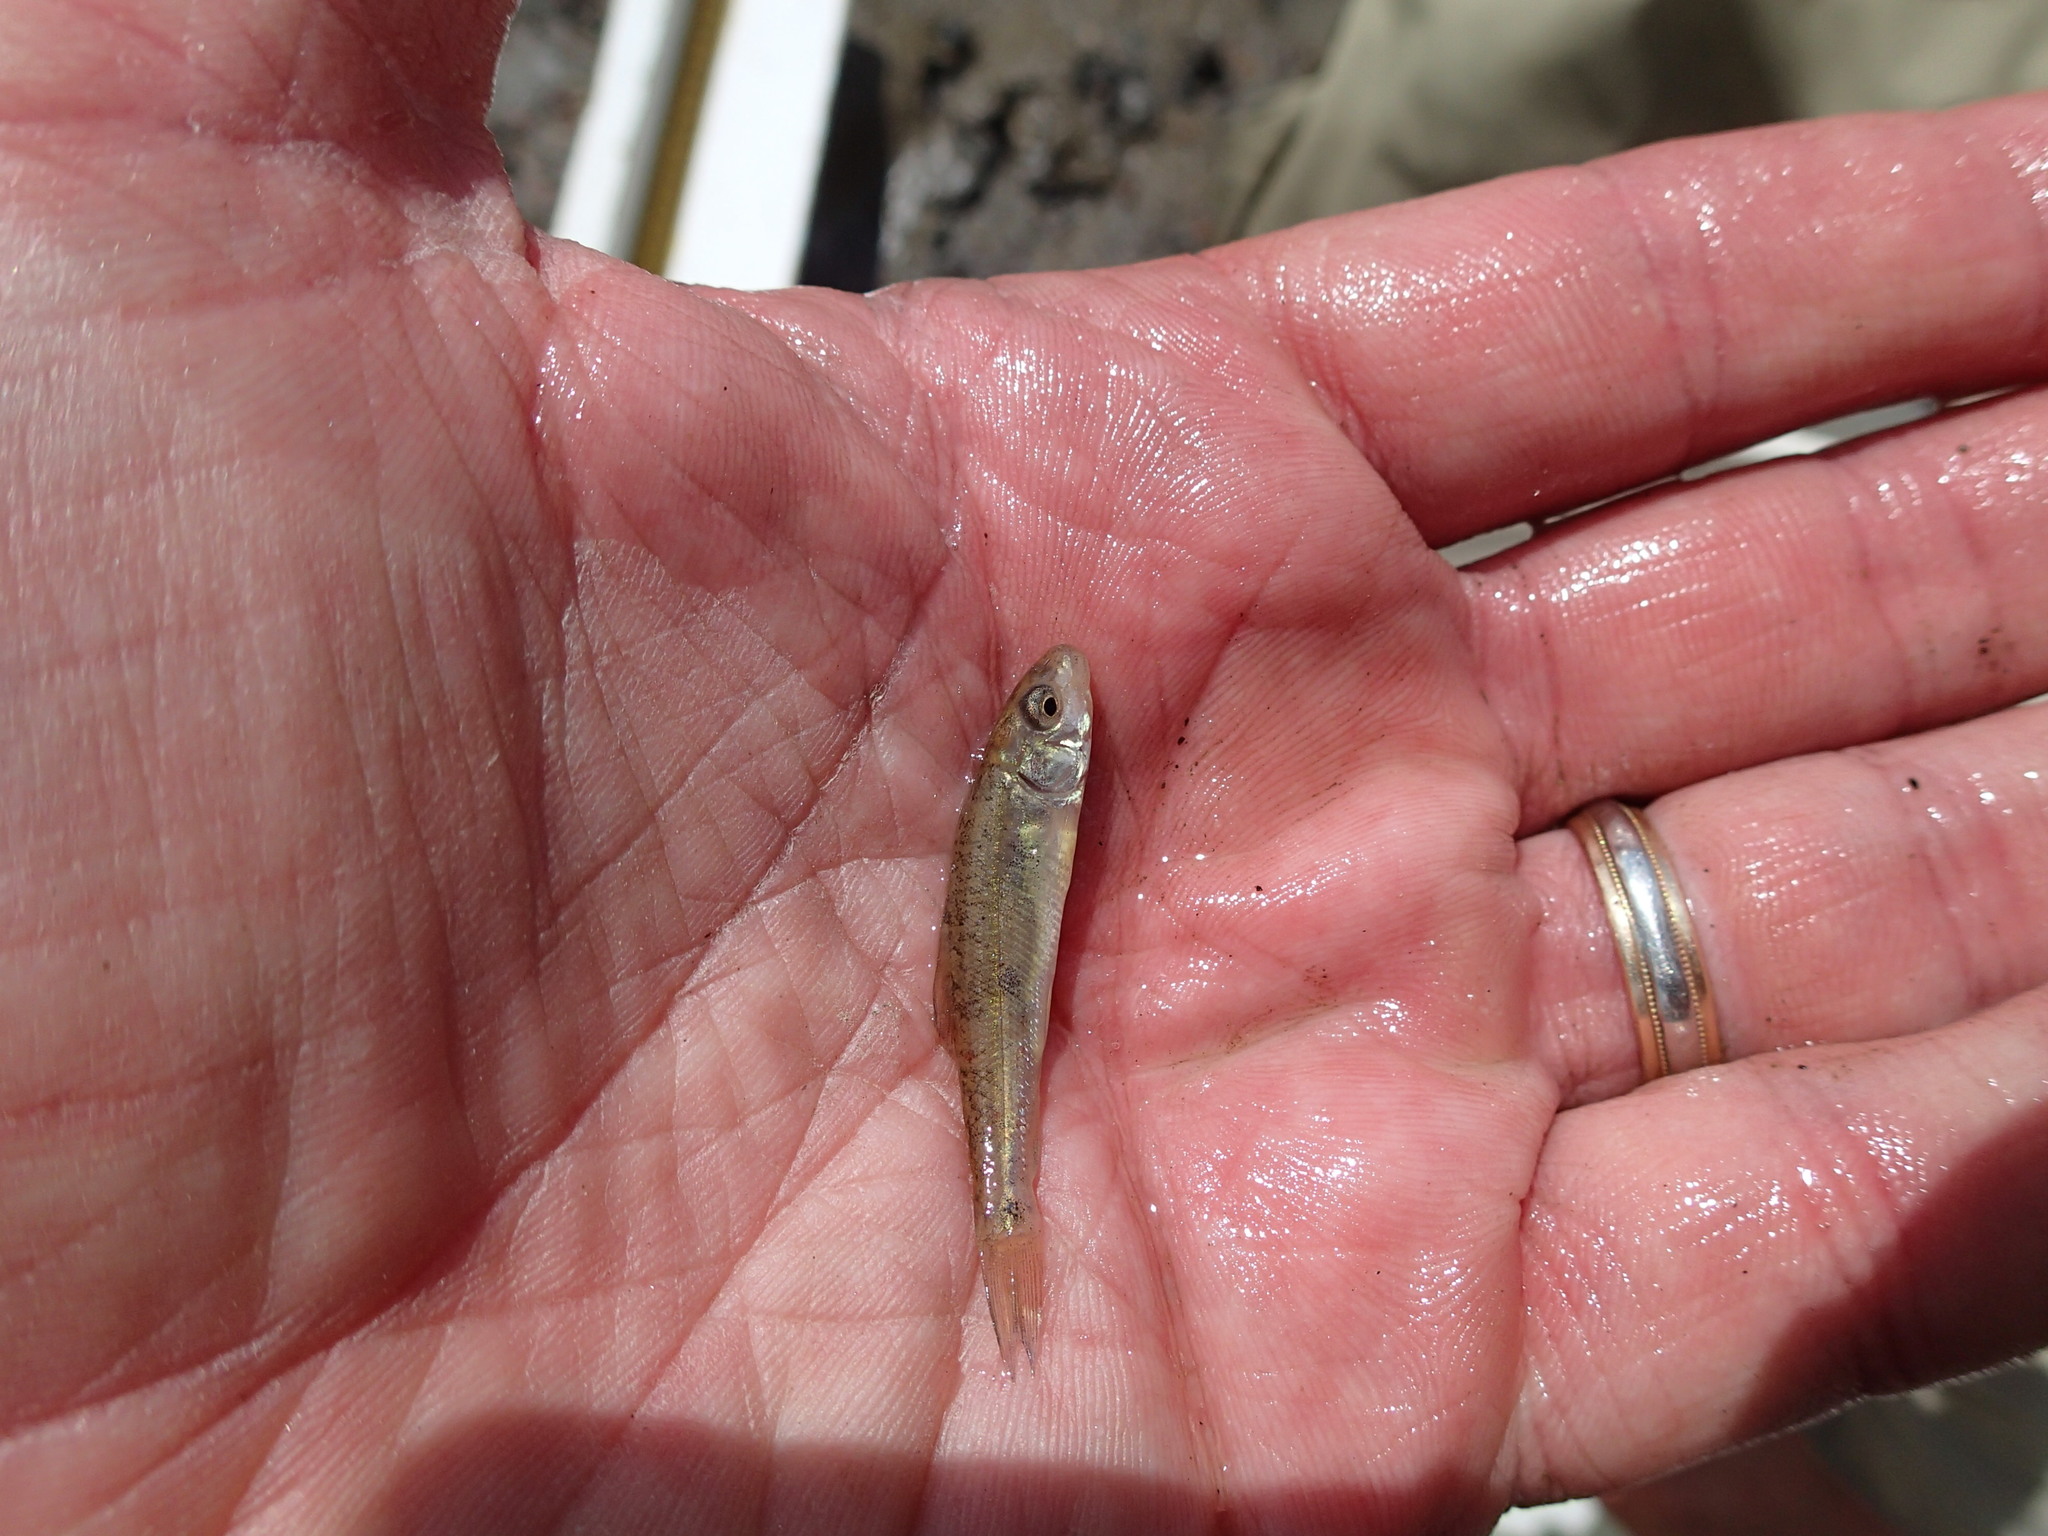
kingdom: Animalia
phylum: Chordata
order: Cypriniformes
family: Catostomidae
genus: Catostomus
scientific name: Catostomus commersonii
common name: White sucker
